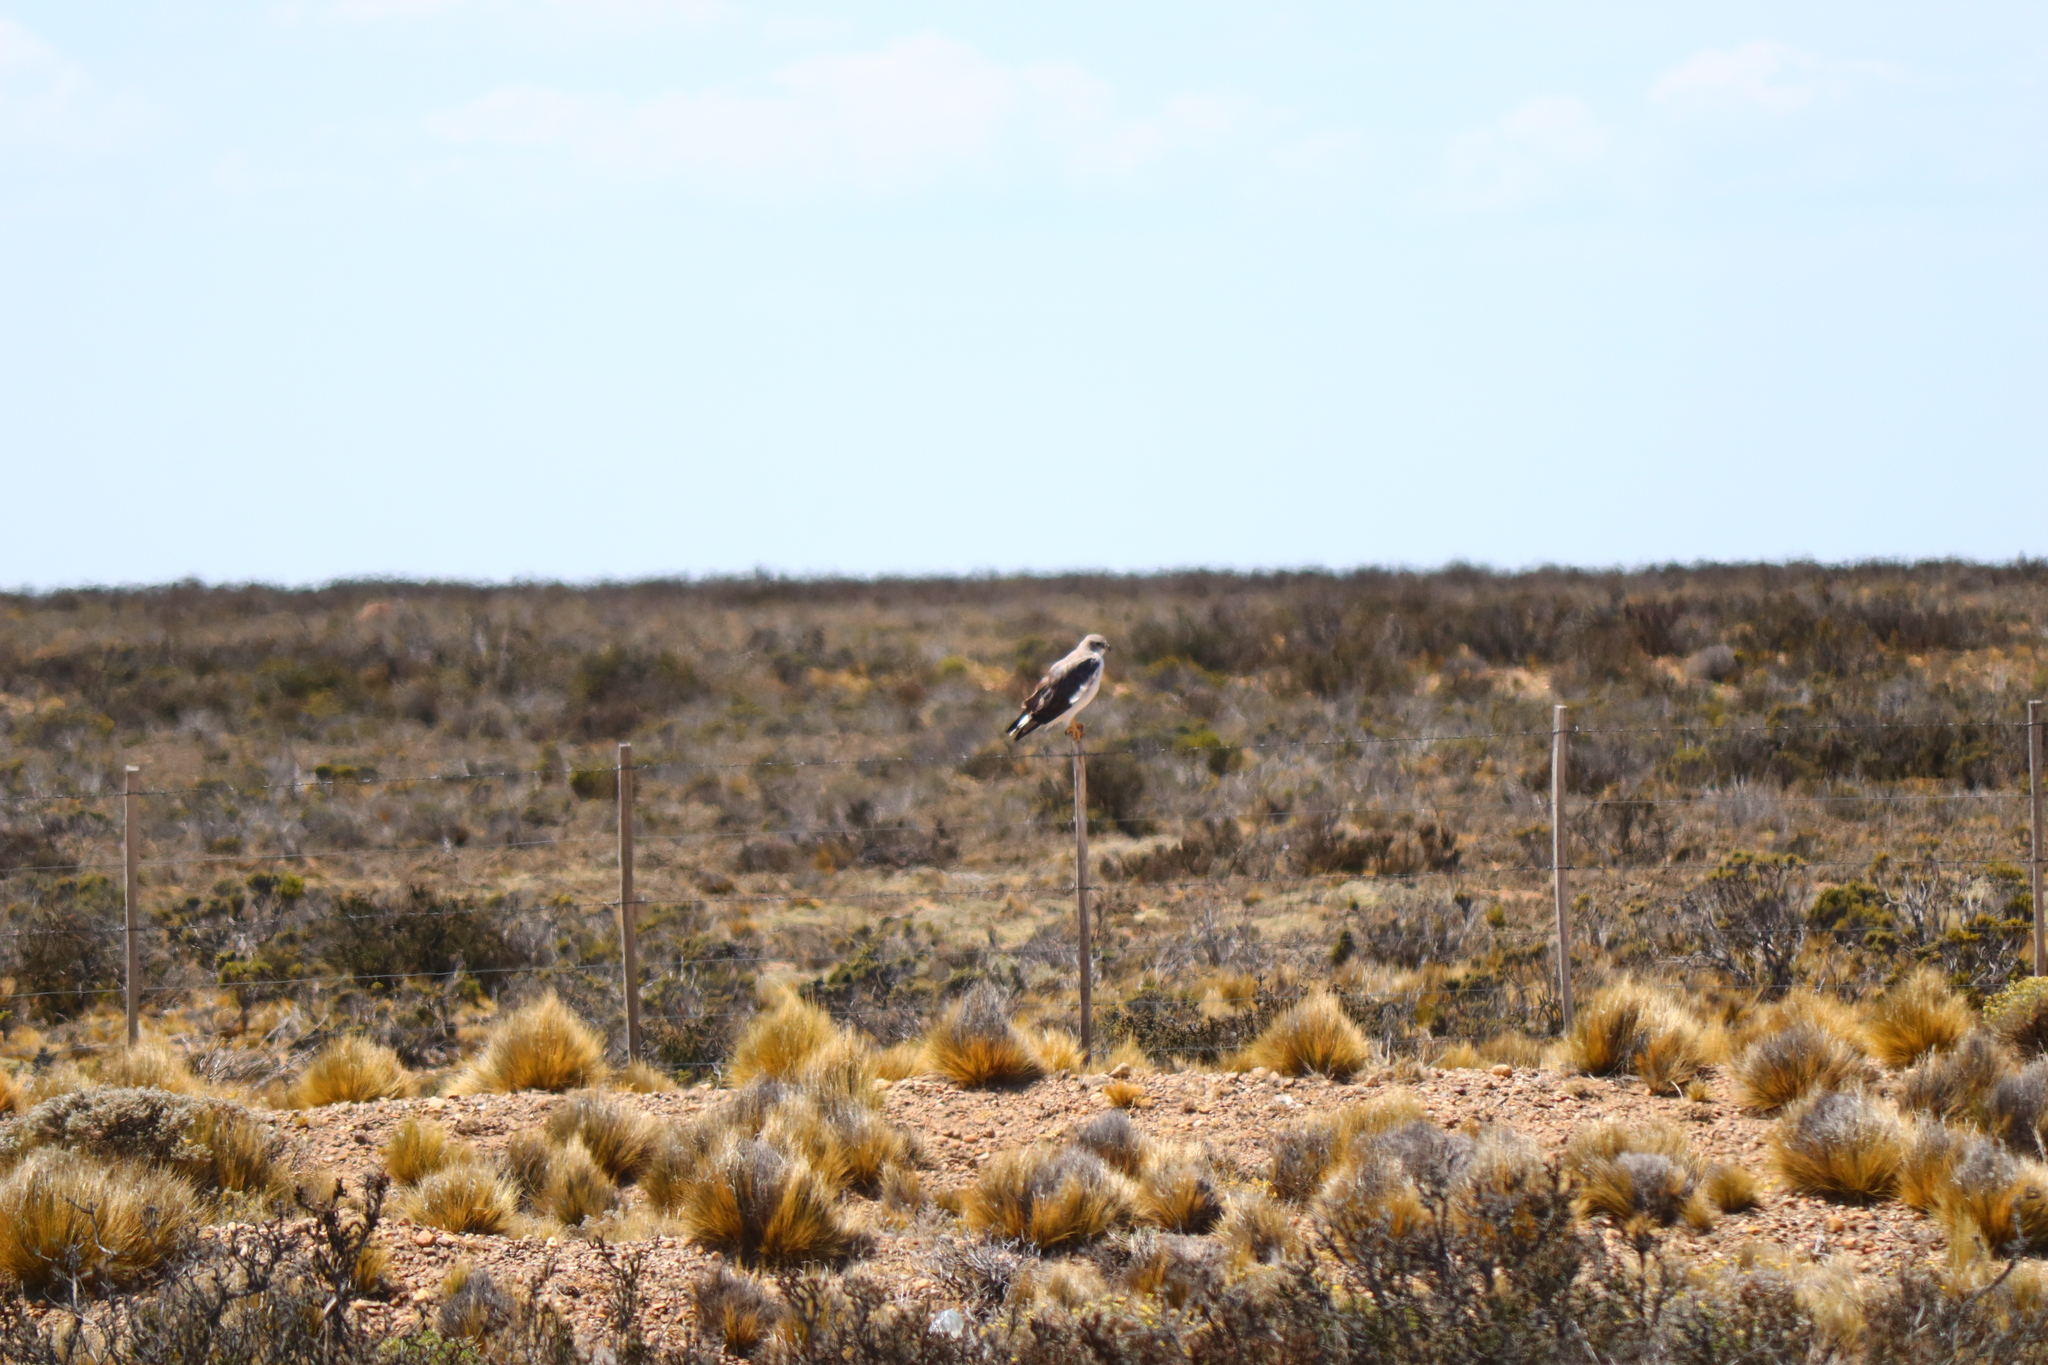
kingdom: Animalia
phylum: Chordata
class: Aves
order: Accipitriformes
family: Accipitridae
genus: Buteo
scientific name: Buteo polyosoma
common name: Variable hawk
